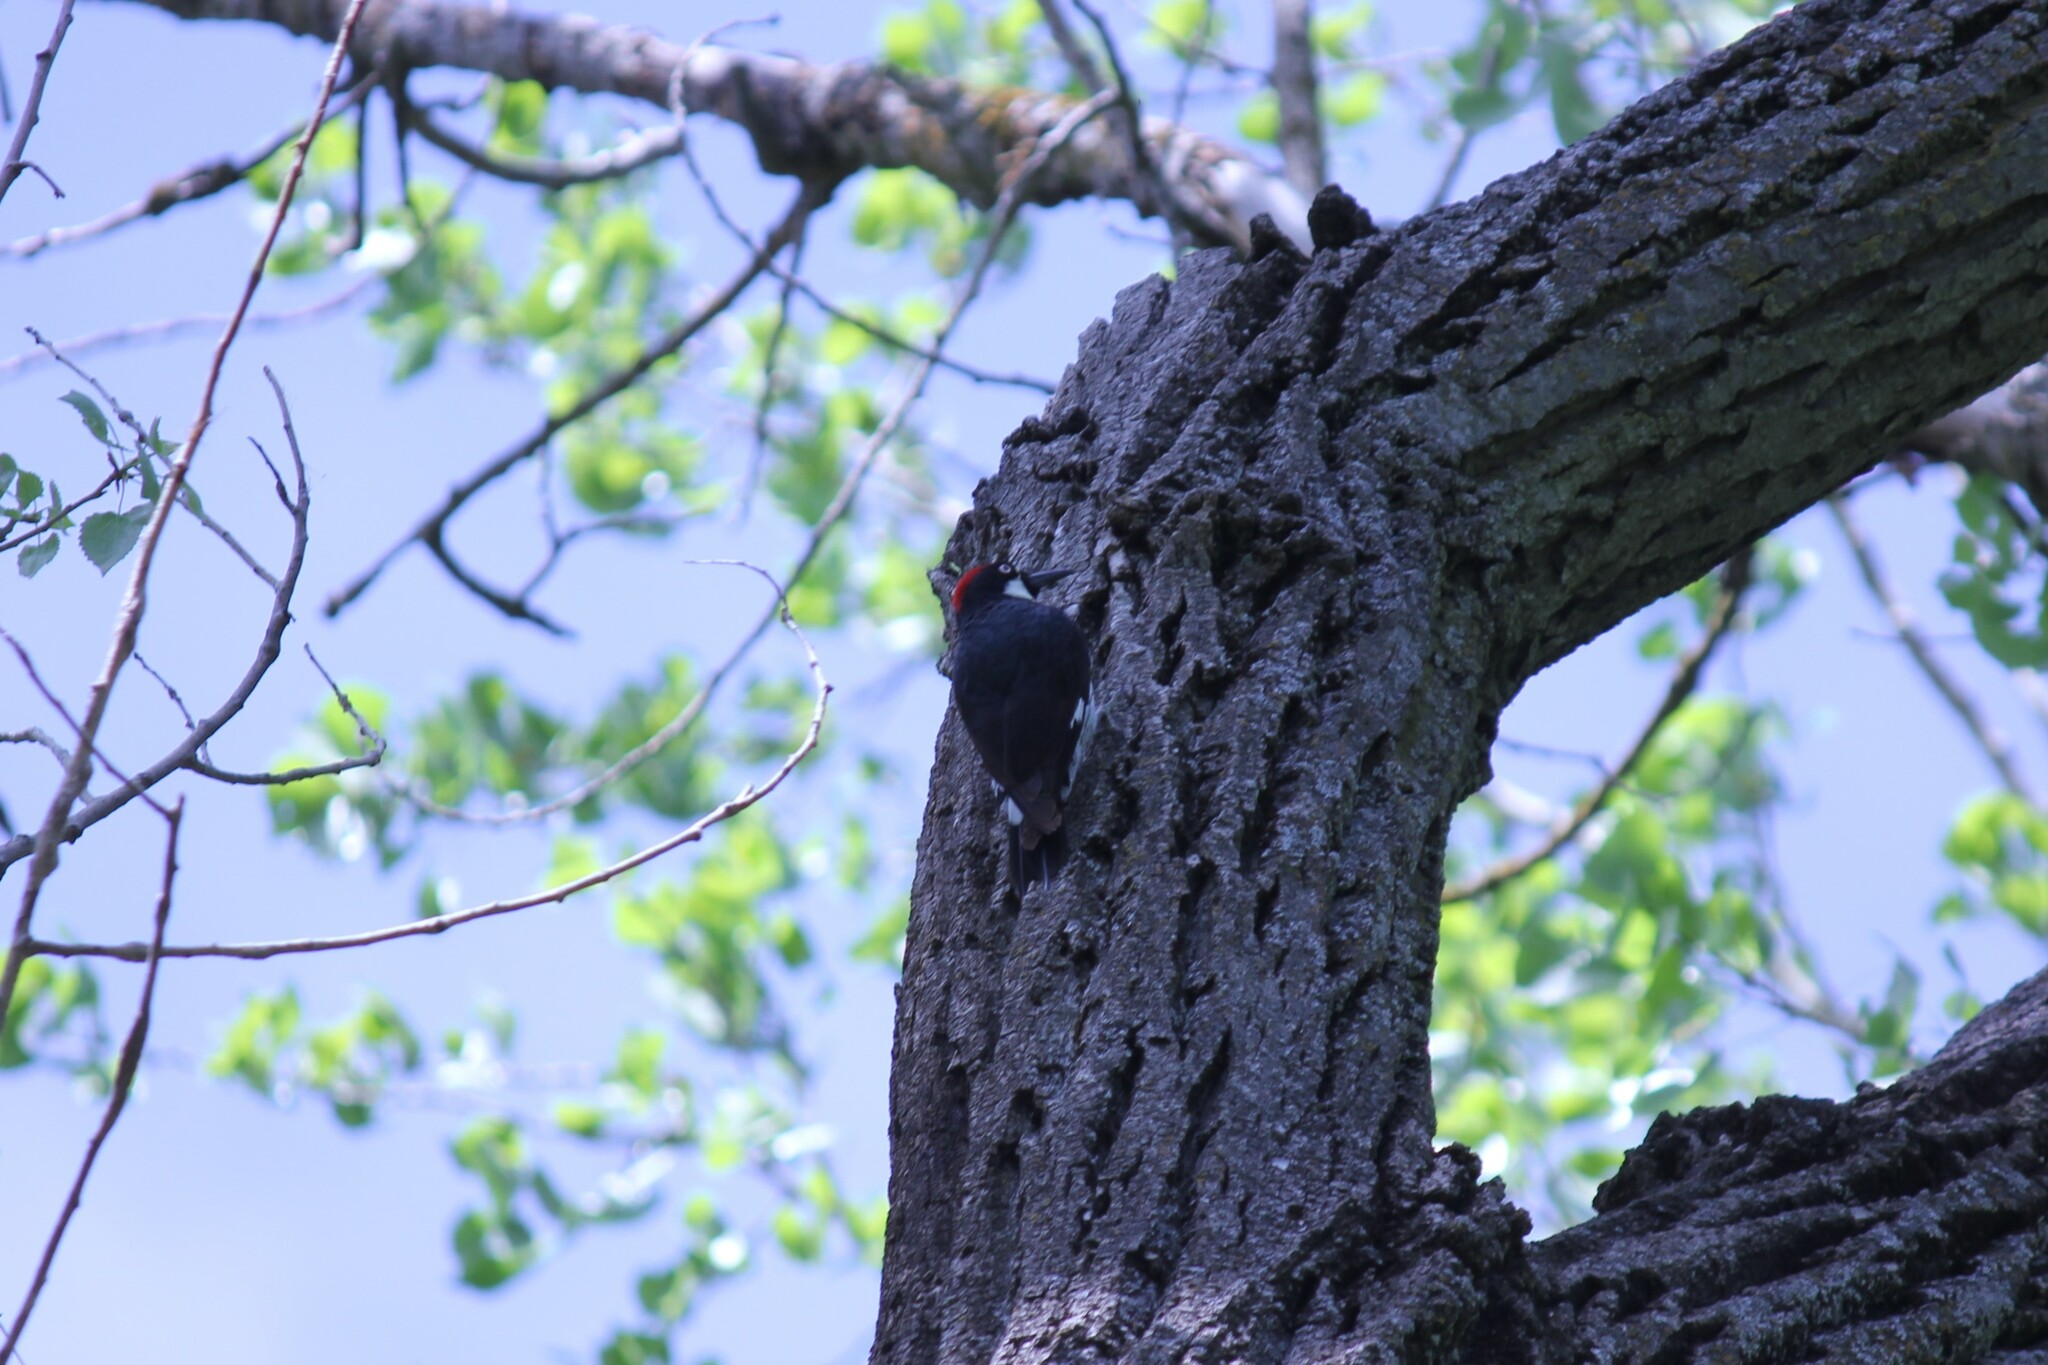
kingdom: Animalia
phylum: Chordata
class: Aves
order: Piciformes
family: Picidae
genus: Melanerpes
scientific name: Melanerpes formicivorus
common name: Acorn woodpecker
